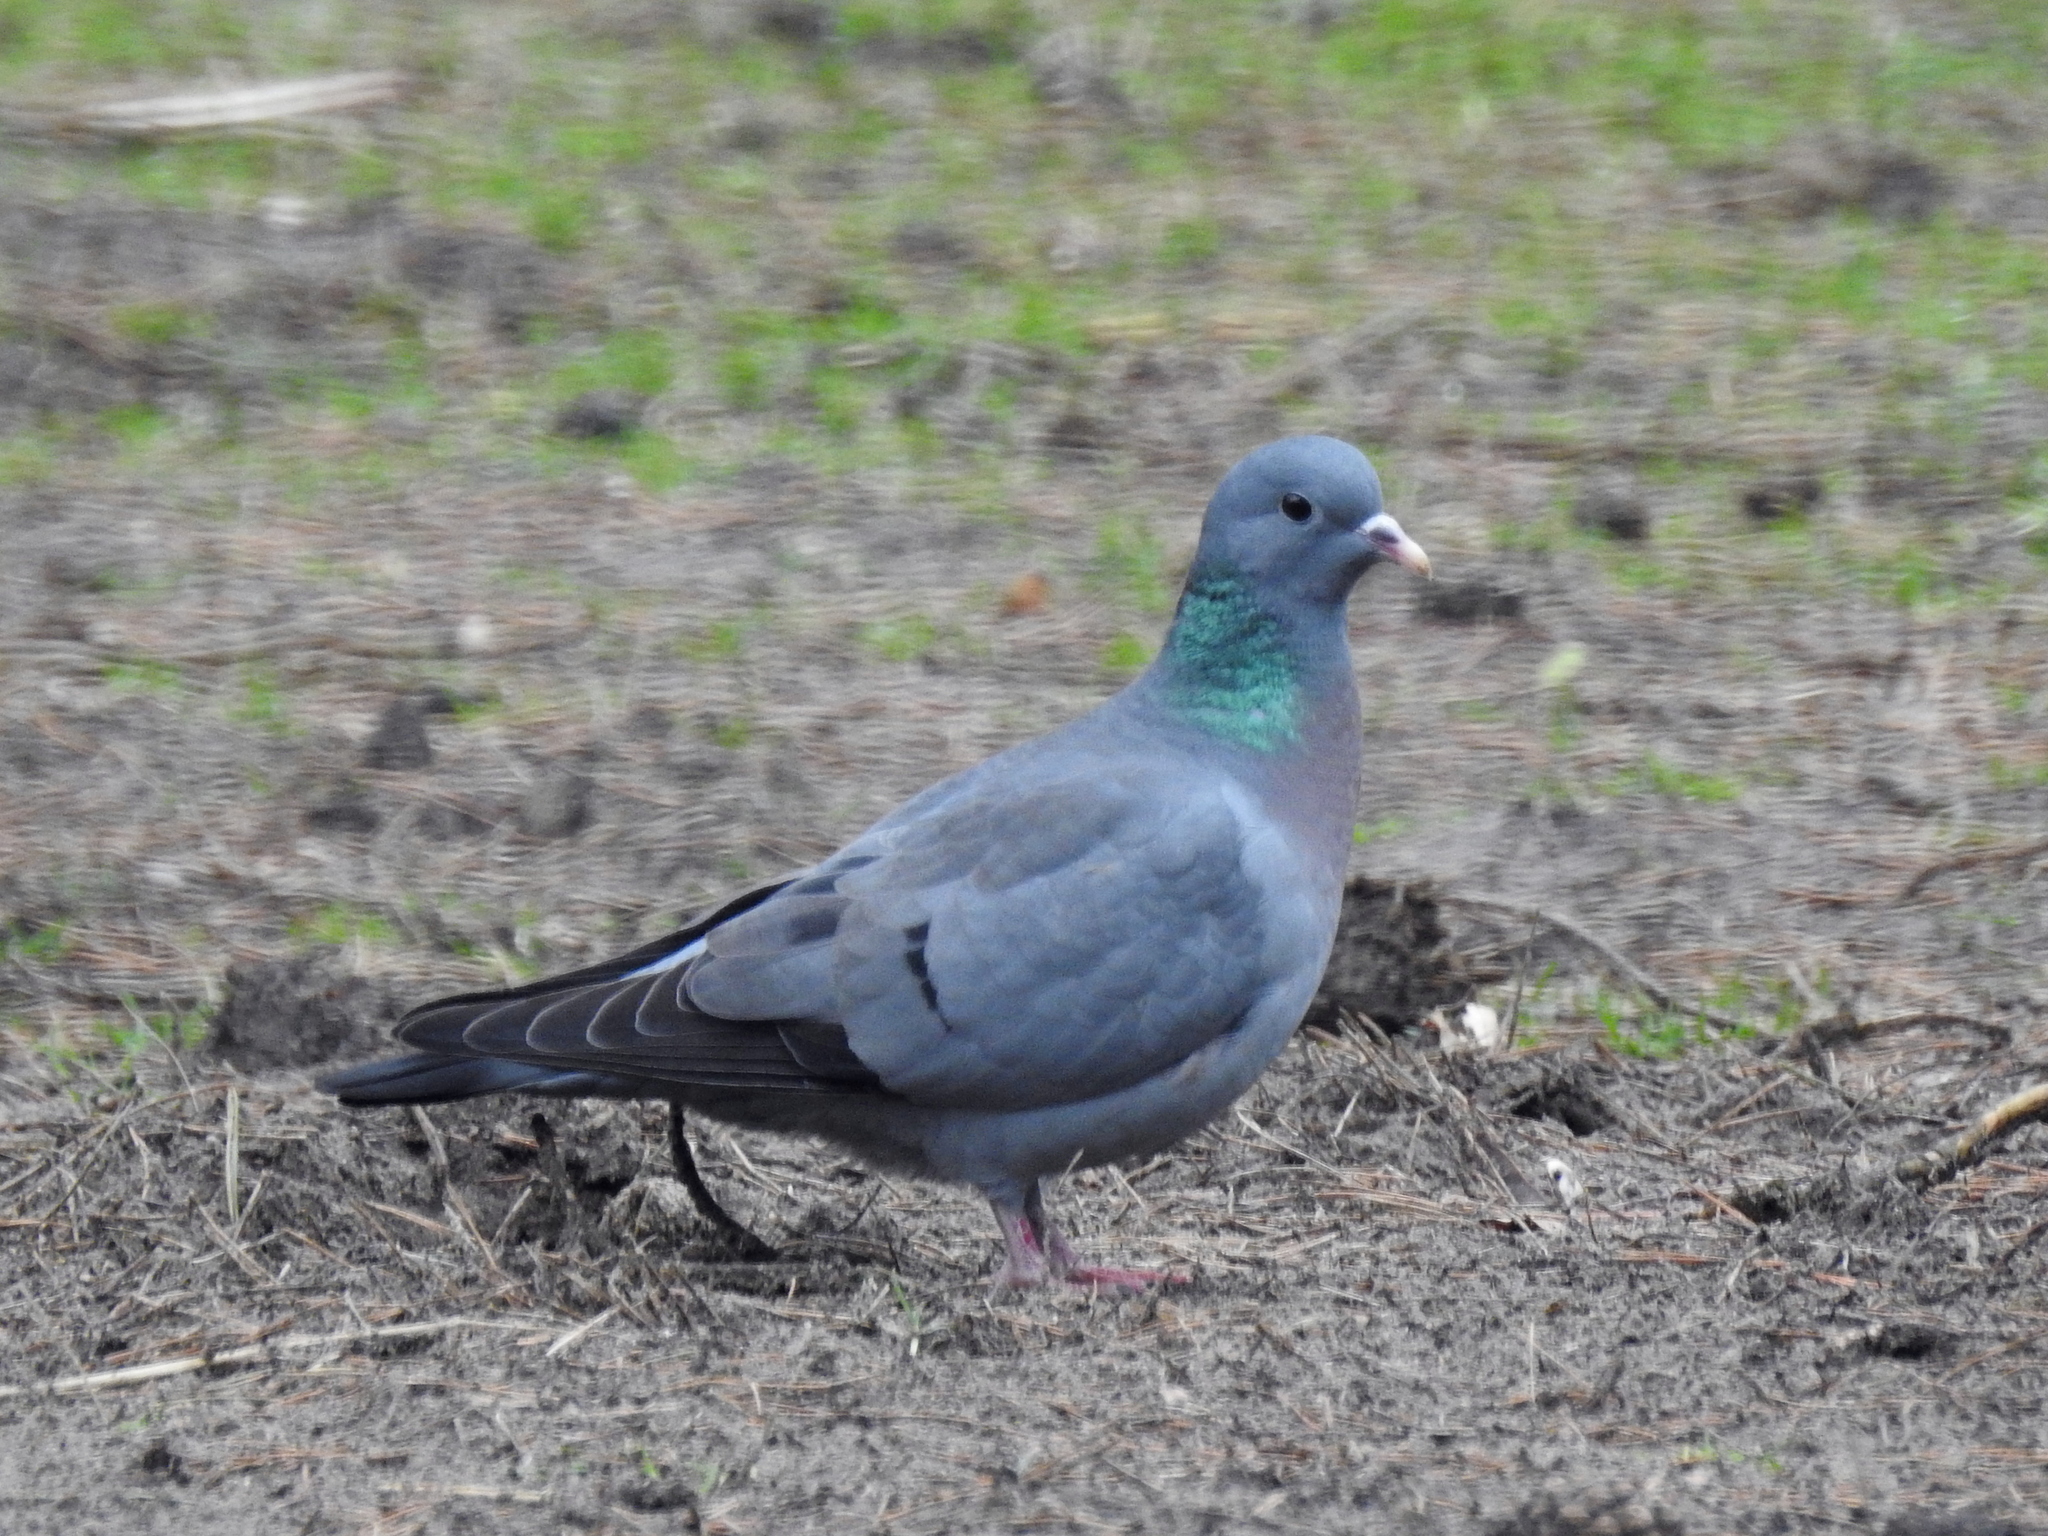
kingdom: Animalia
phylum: Chordata
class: Aves
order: Columbiformes
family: Columbidae
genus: Columba
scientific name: Columba oenas
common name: Stock dove
